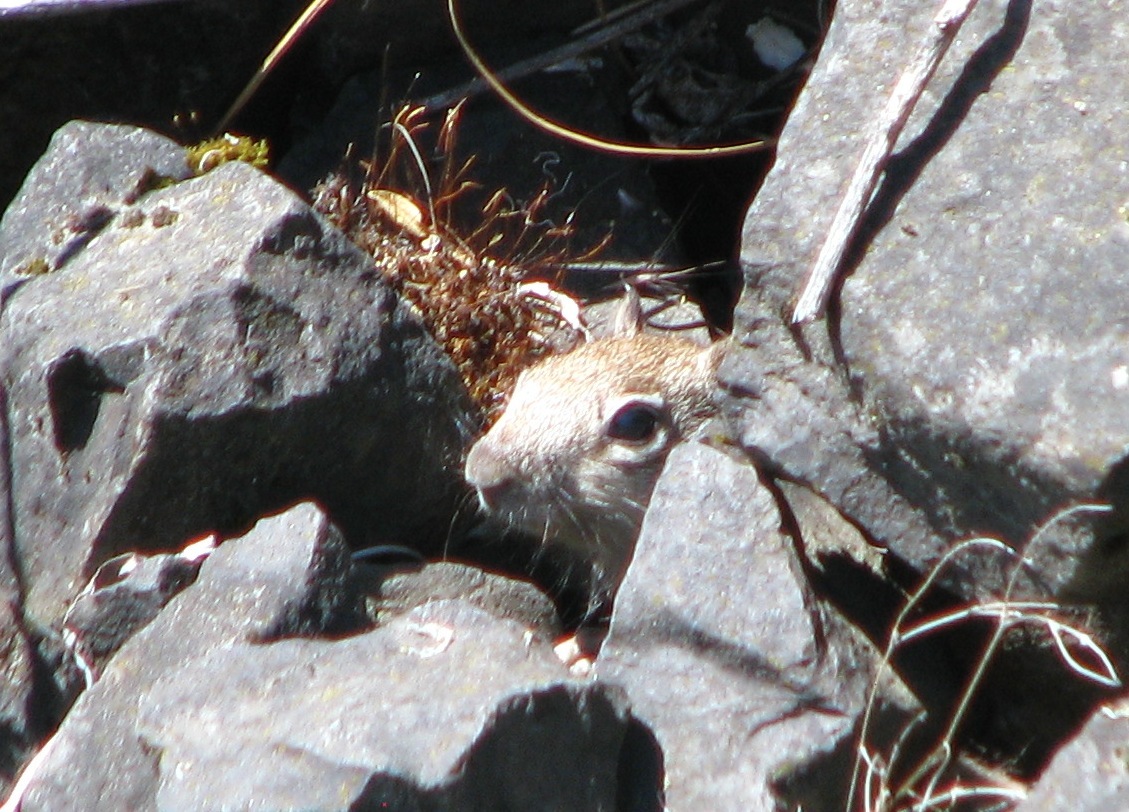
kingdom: Animalia
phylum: Chordata
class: Mammalia
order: Rodentia
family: Sciuridae
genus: Otospermophilus
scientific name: Otospermophilus beecheyi
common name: California ground squirrel
